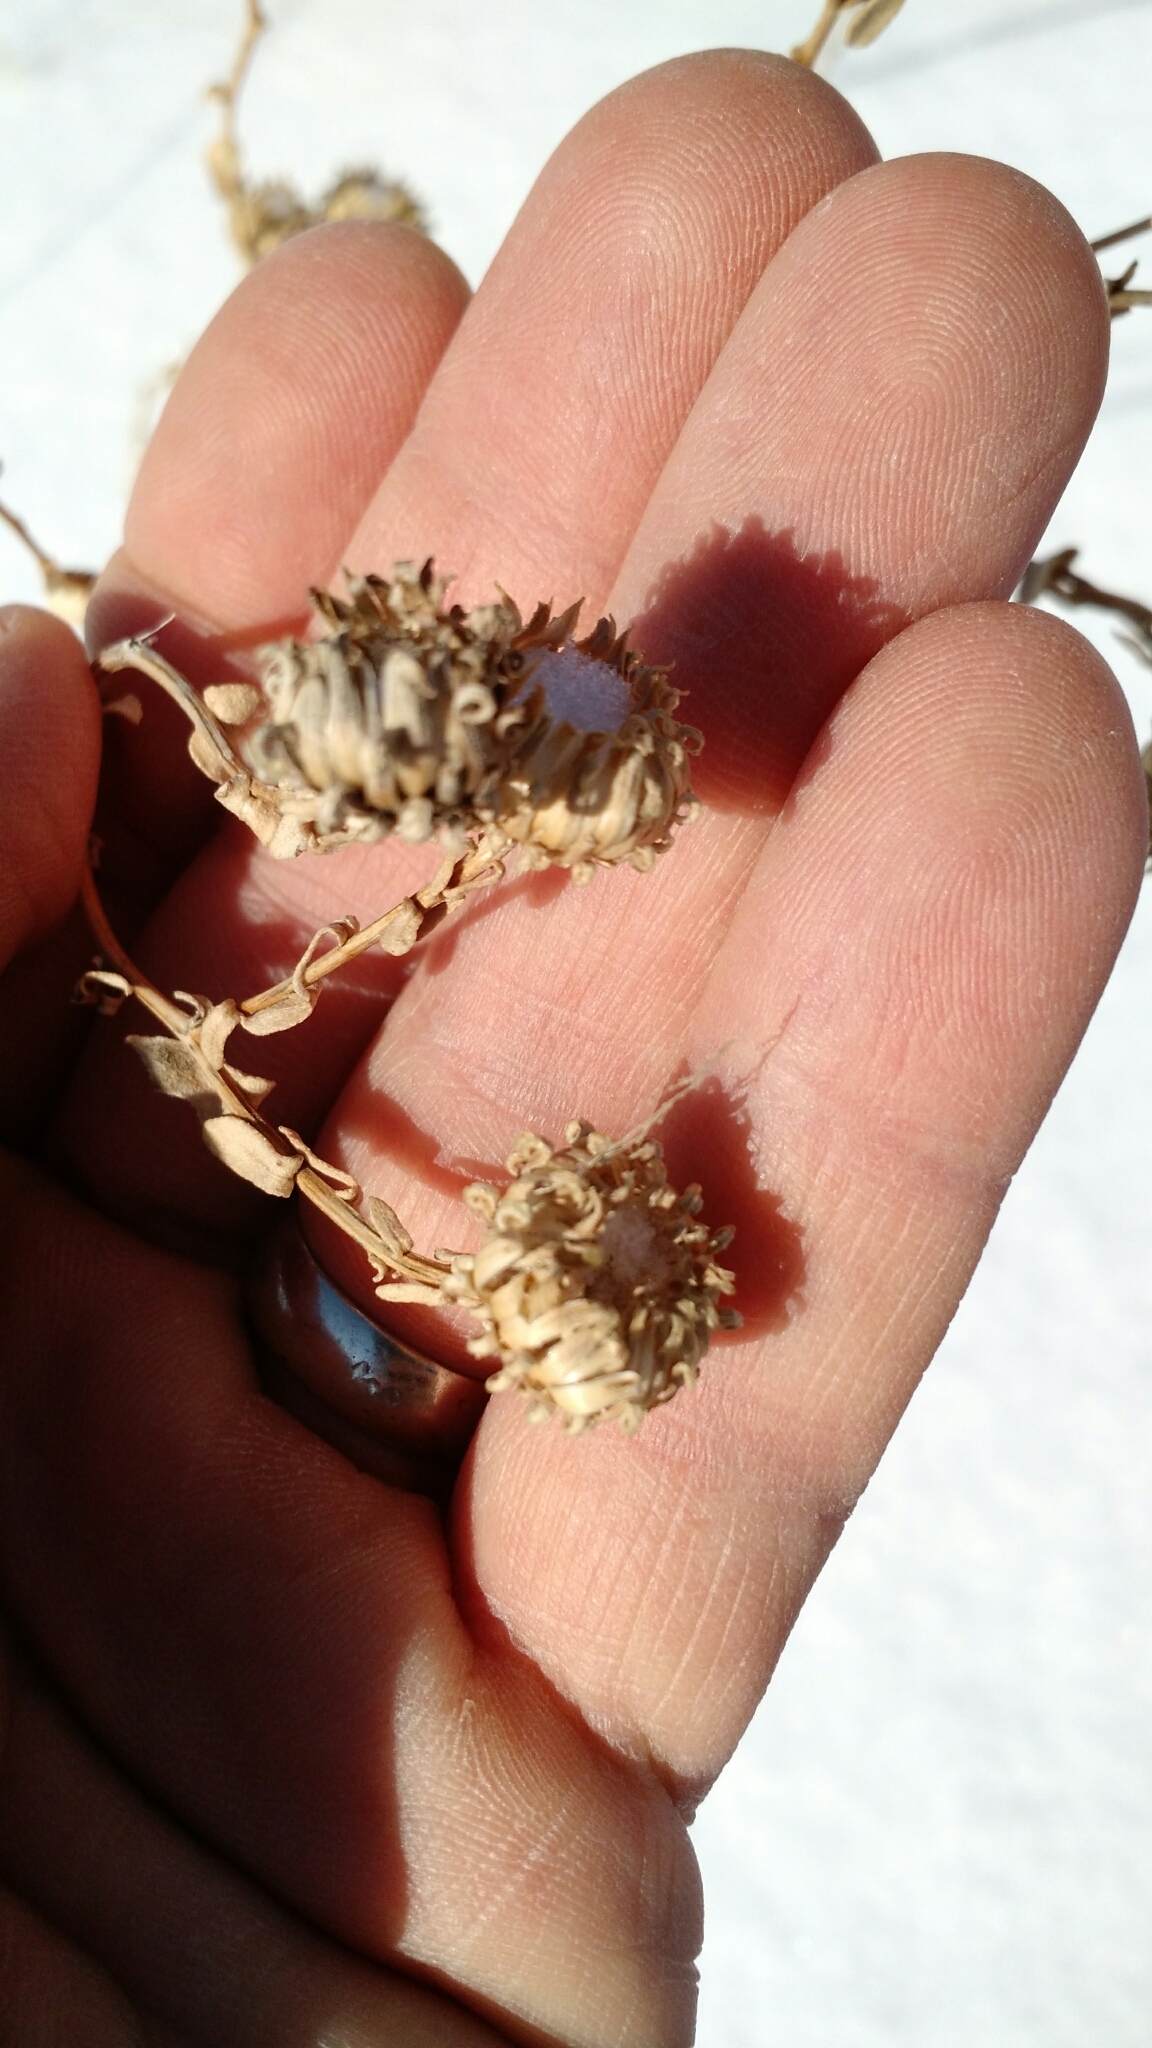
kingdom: Plantae
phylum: Tracheophyta
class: Magnoliopsida
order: Asterales
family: Asteraceae
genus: Grindelia
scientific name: Grindelia squarrosa
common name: Curly-cup gumweed
